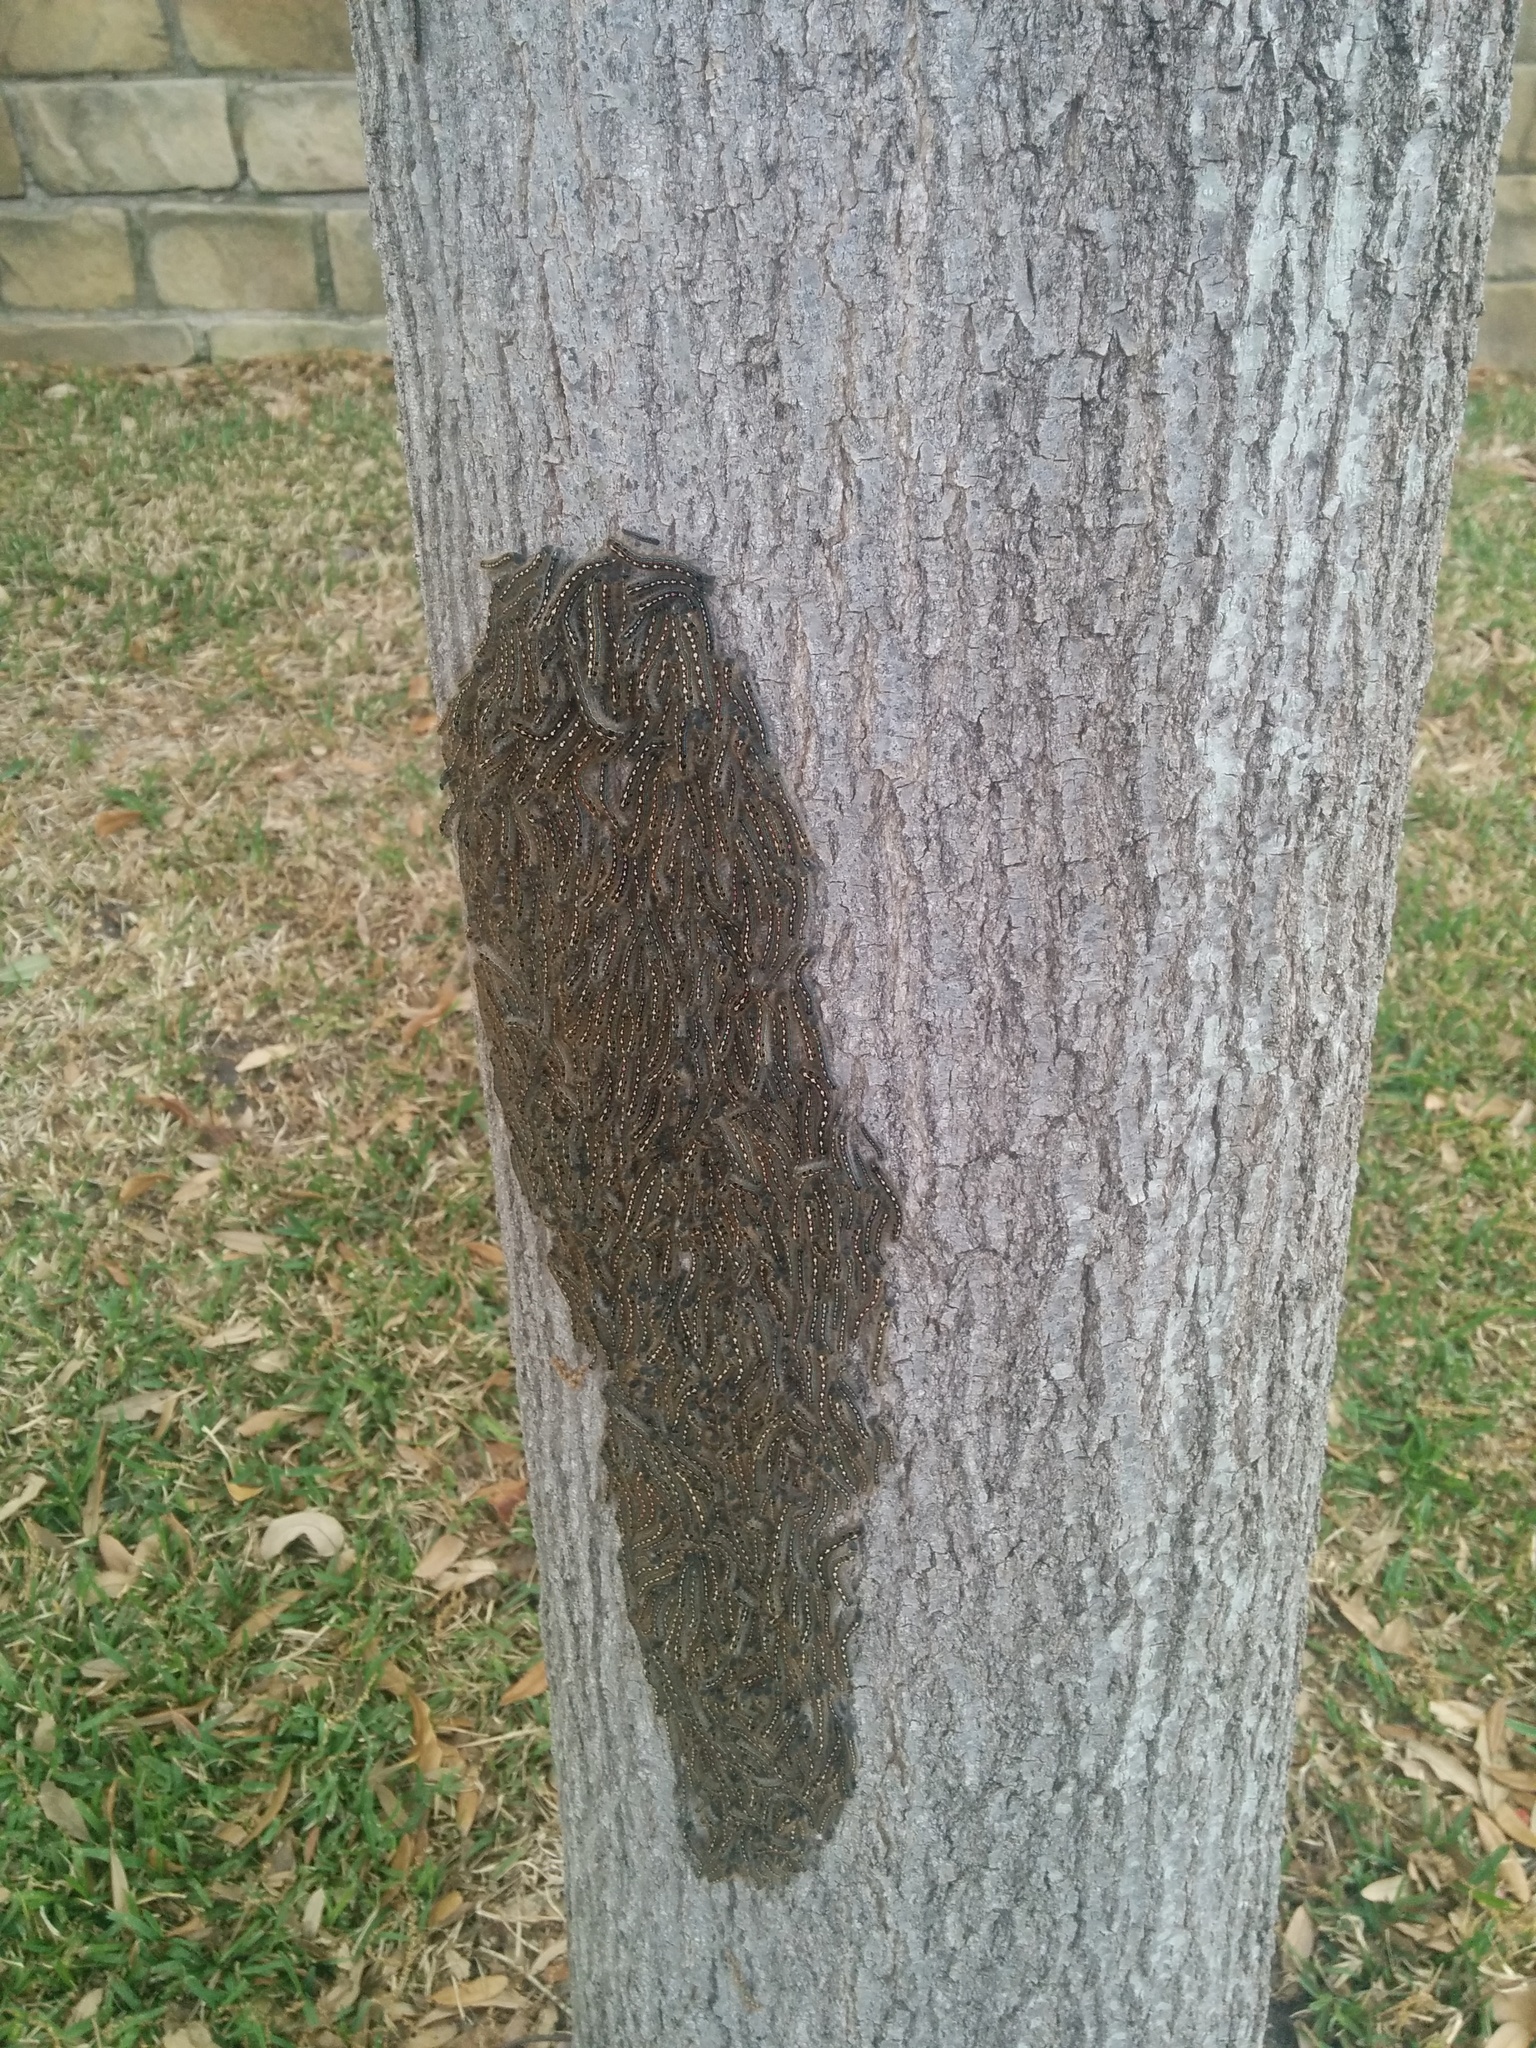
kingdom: Animalia
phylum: Arthropoda
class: Insecta
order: Lepidoptera
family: Lasiocampidae
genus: Malacosoma
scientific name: Malacosoma disstria
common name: Forest tent caterpillar
